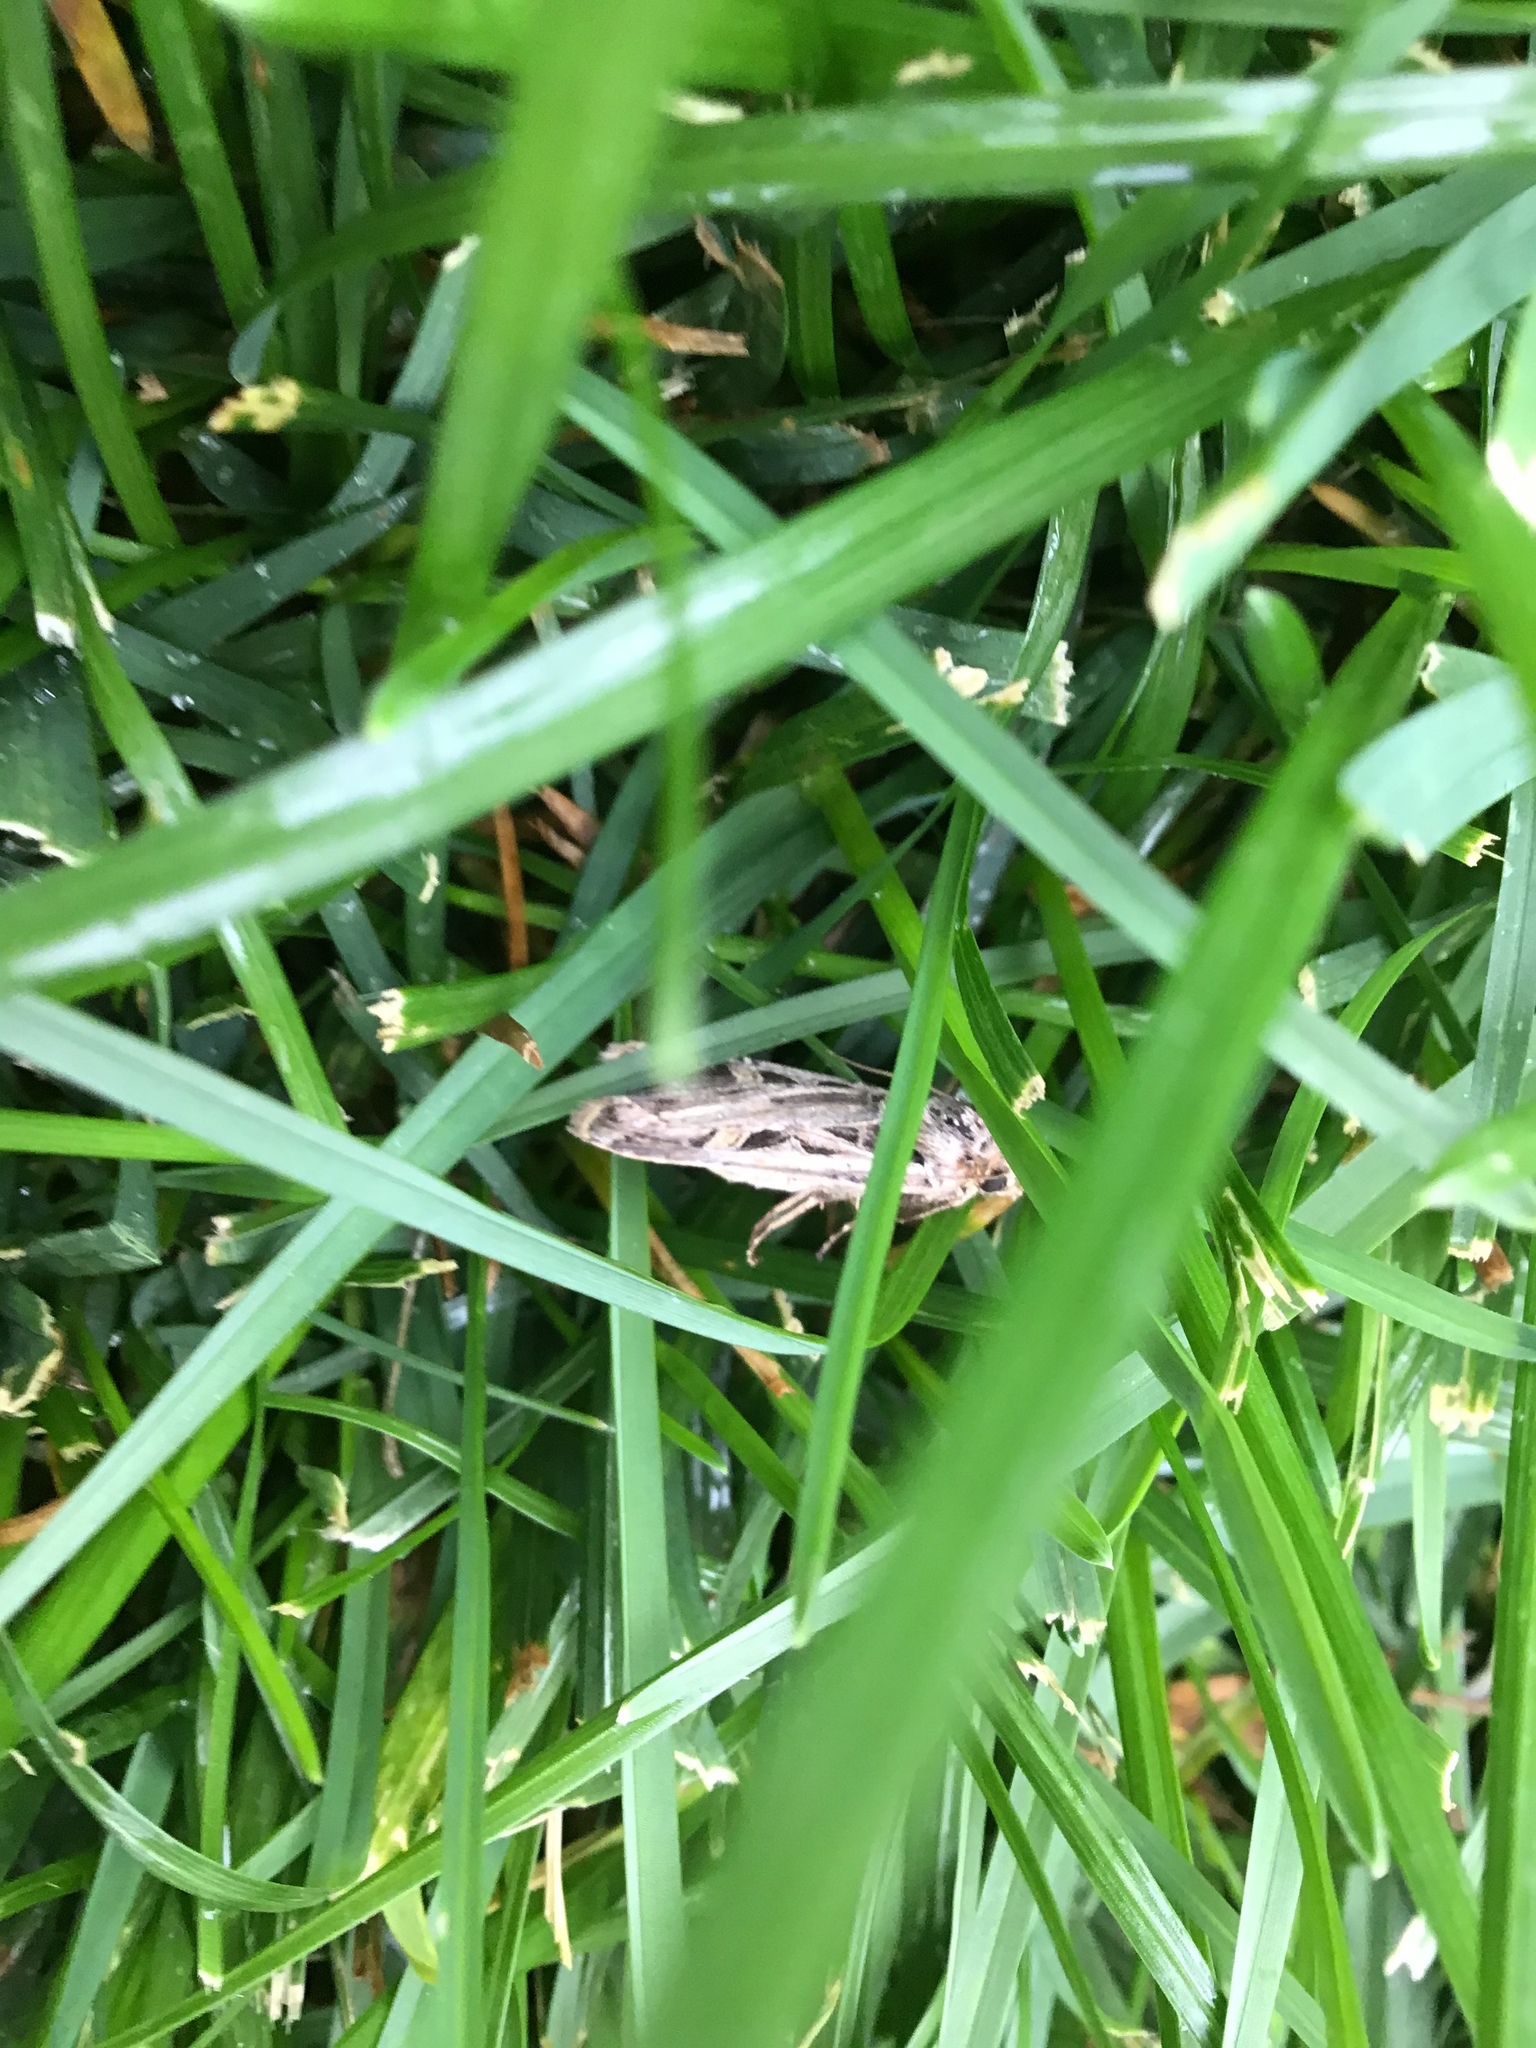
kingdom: Animalia
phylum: Arthropoda
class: Insecta
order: Lepidoptera
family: Noctuidae
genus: Feltia
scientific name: Feltia jaculifera
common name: Dingy cutworm moth
